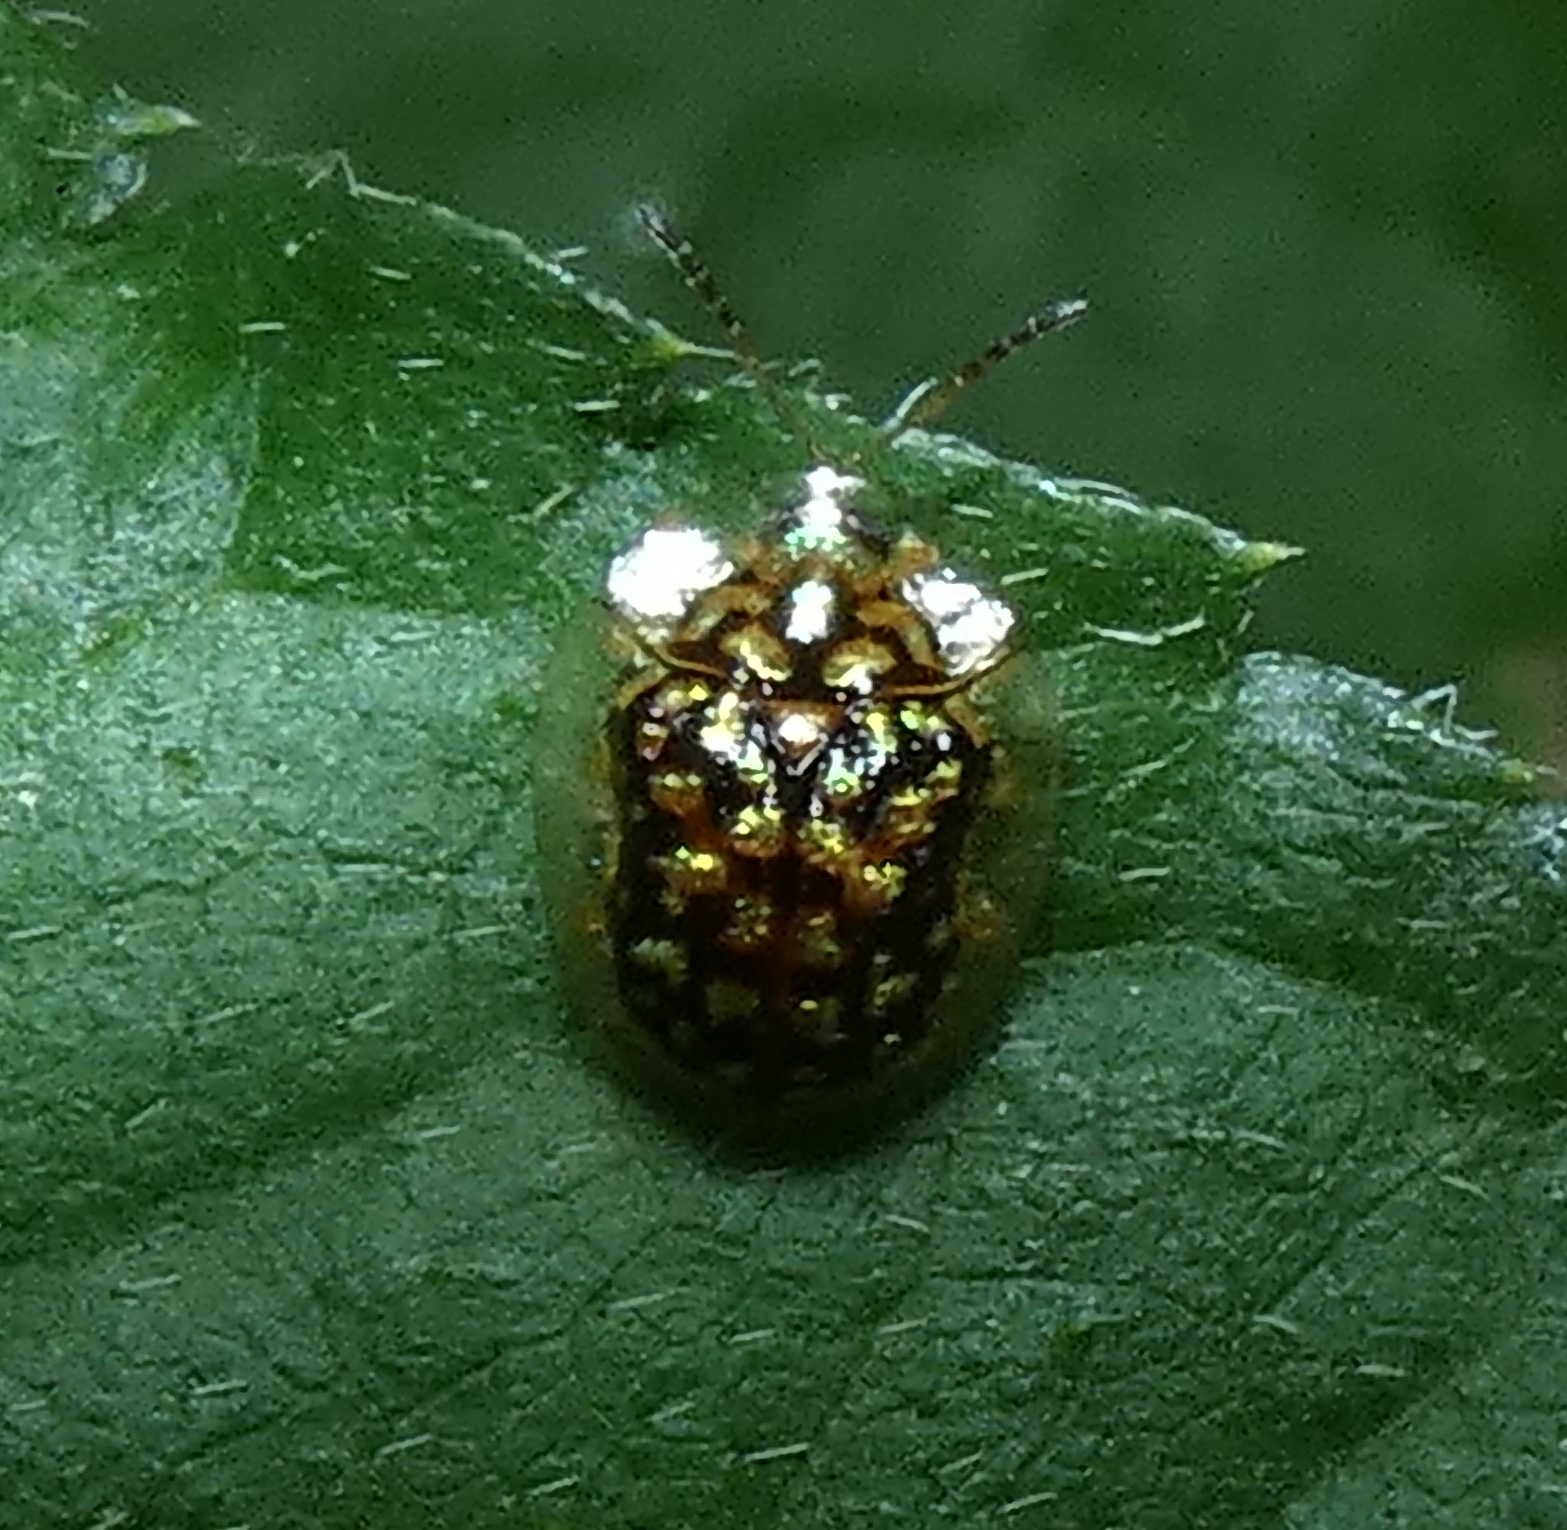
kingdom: Animalia
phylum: Arthropoda
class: Insecta
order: Coleoptera
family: Chrysomelidae
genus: Cteisella
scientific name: Cteisella guttigera
